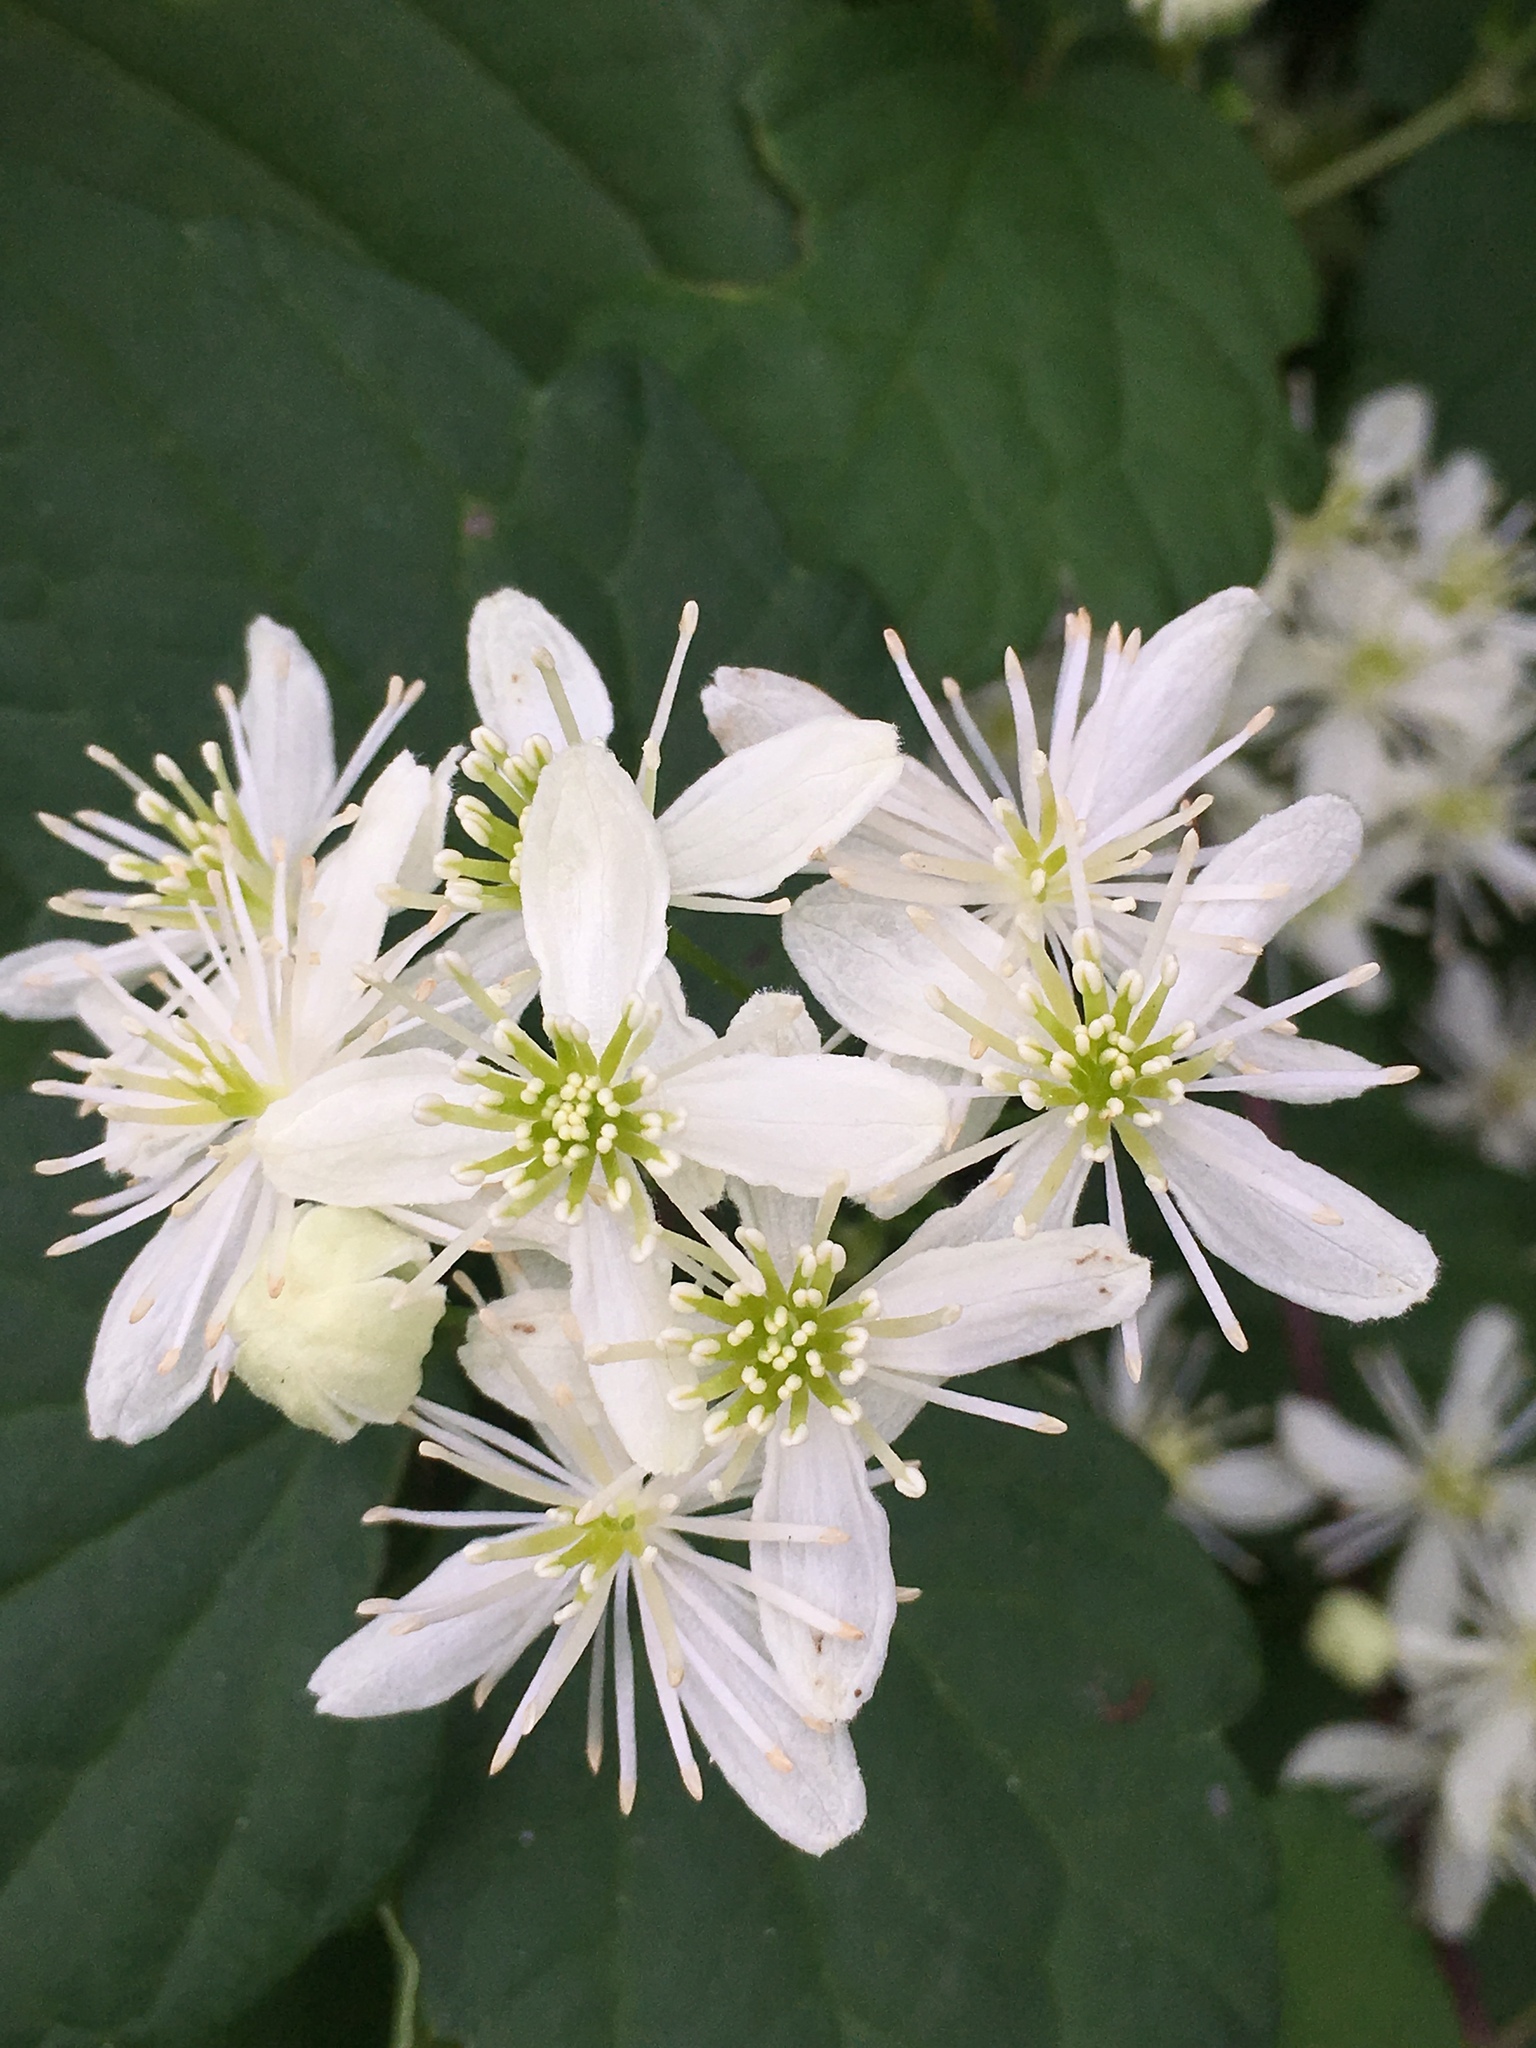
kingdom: Plantae
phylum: Tracheophyta
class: Magnoliopsida
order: Ranunculales
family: Ranunculaceae
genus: Clematis
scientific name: Clematis virginiana
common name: Virgin's-bower
